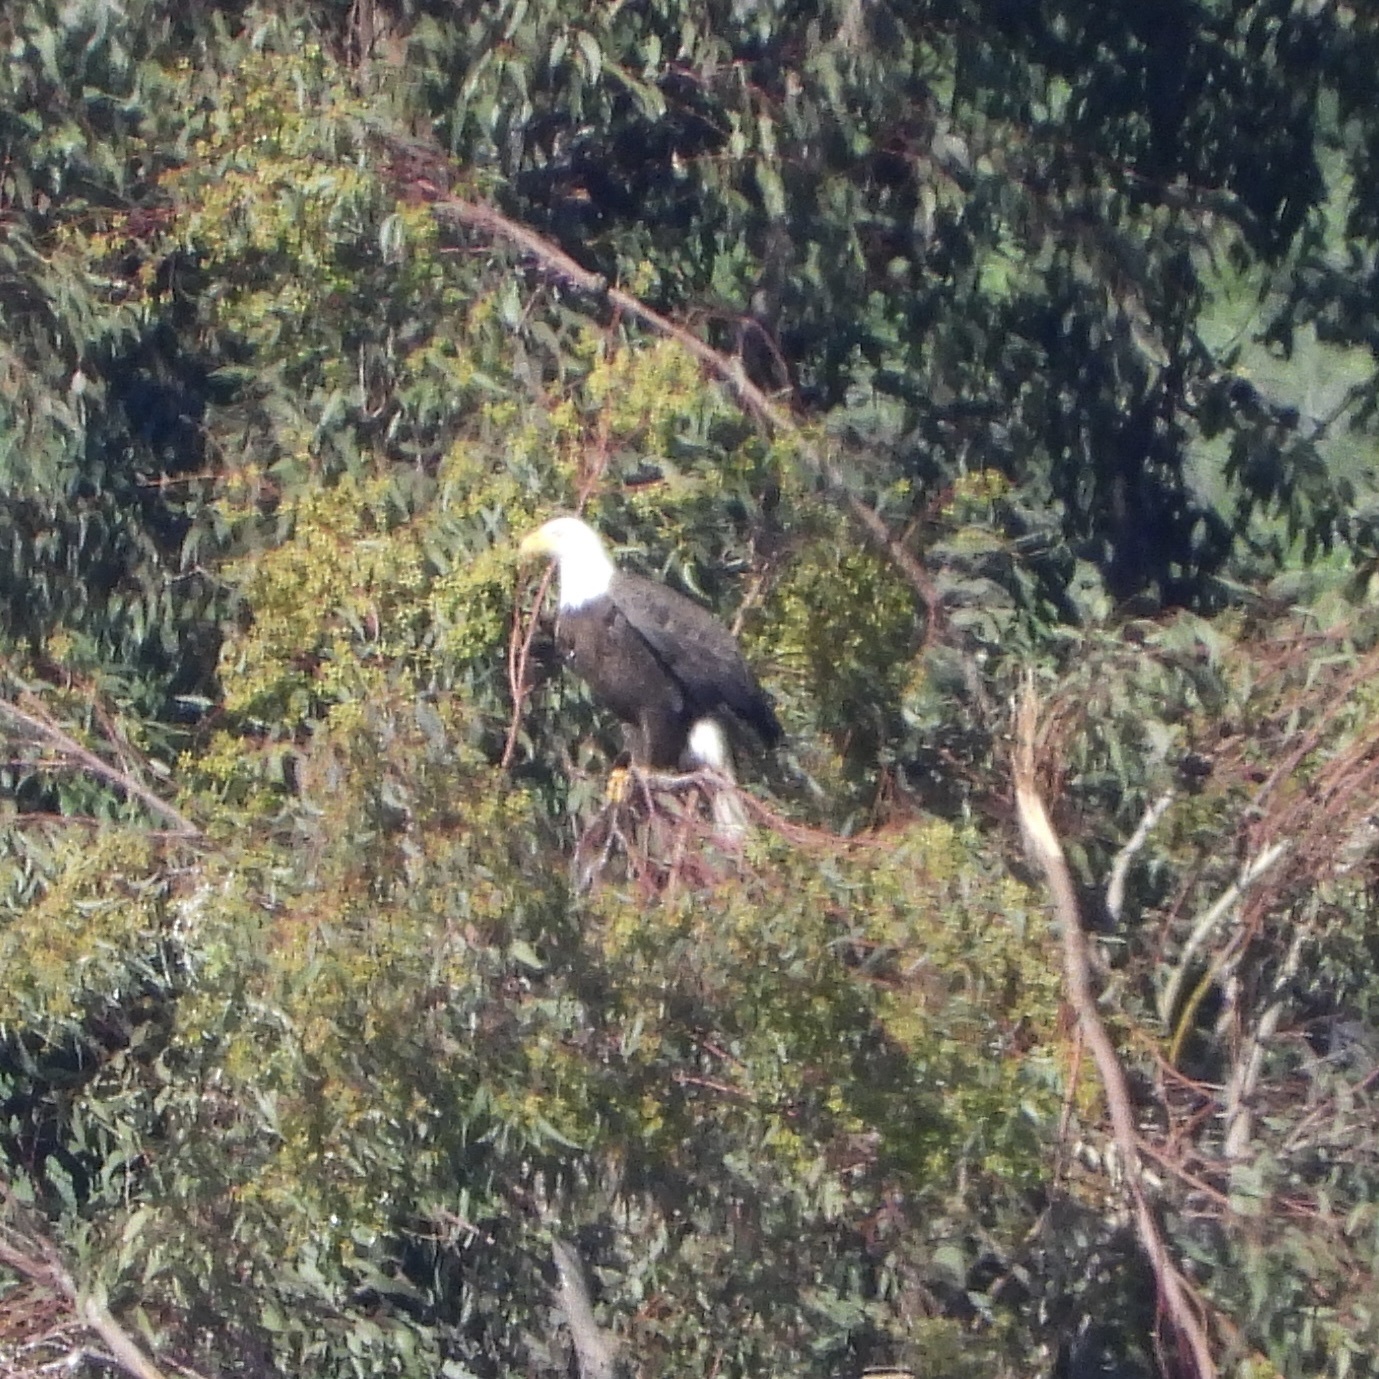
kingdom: Animalia
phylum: Chordata
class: Aves
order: Accipitriformes
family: Accipitridae
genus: Haliaeetus
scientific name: Haliaeetus leucocephalus
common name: Bald eagle
